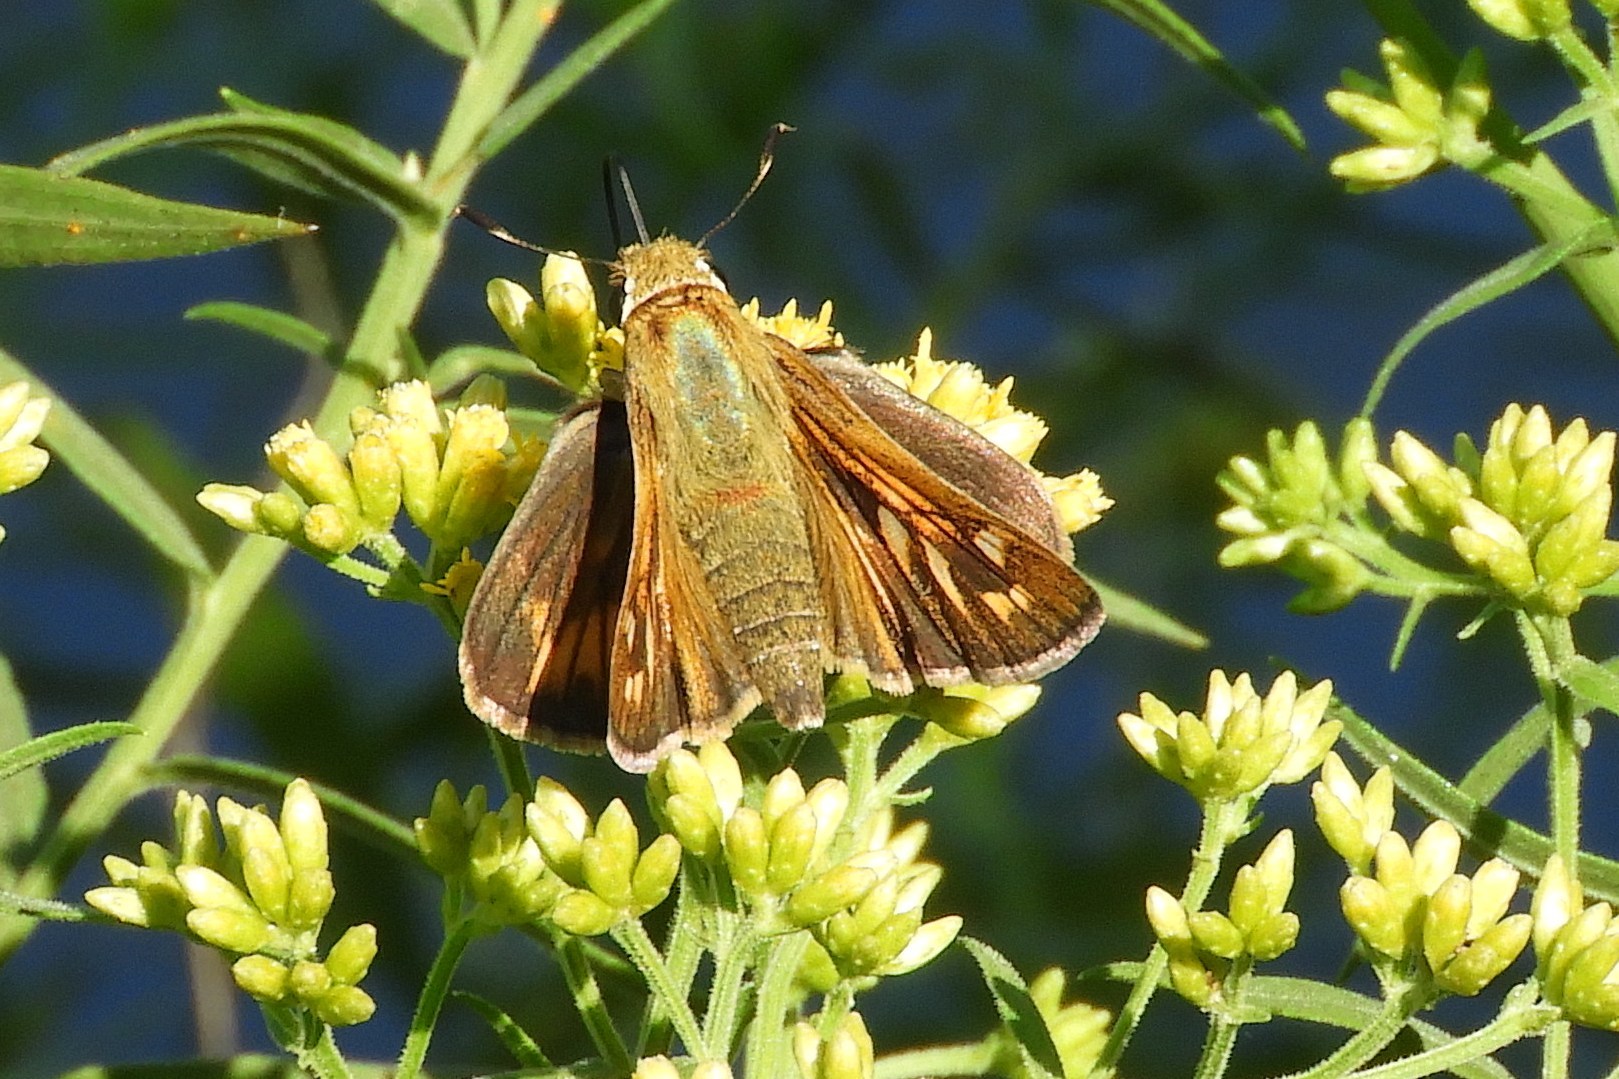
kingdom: Animalia
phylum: Arthropoda
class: Insecta
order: Lepidoptera
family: Hesperiidae
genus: Atalopedes
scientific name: Atalopedes
